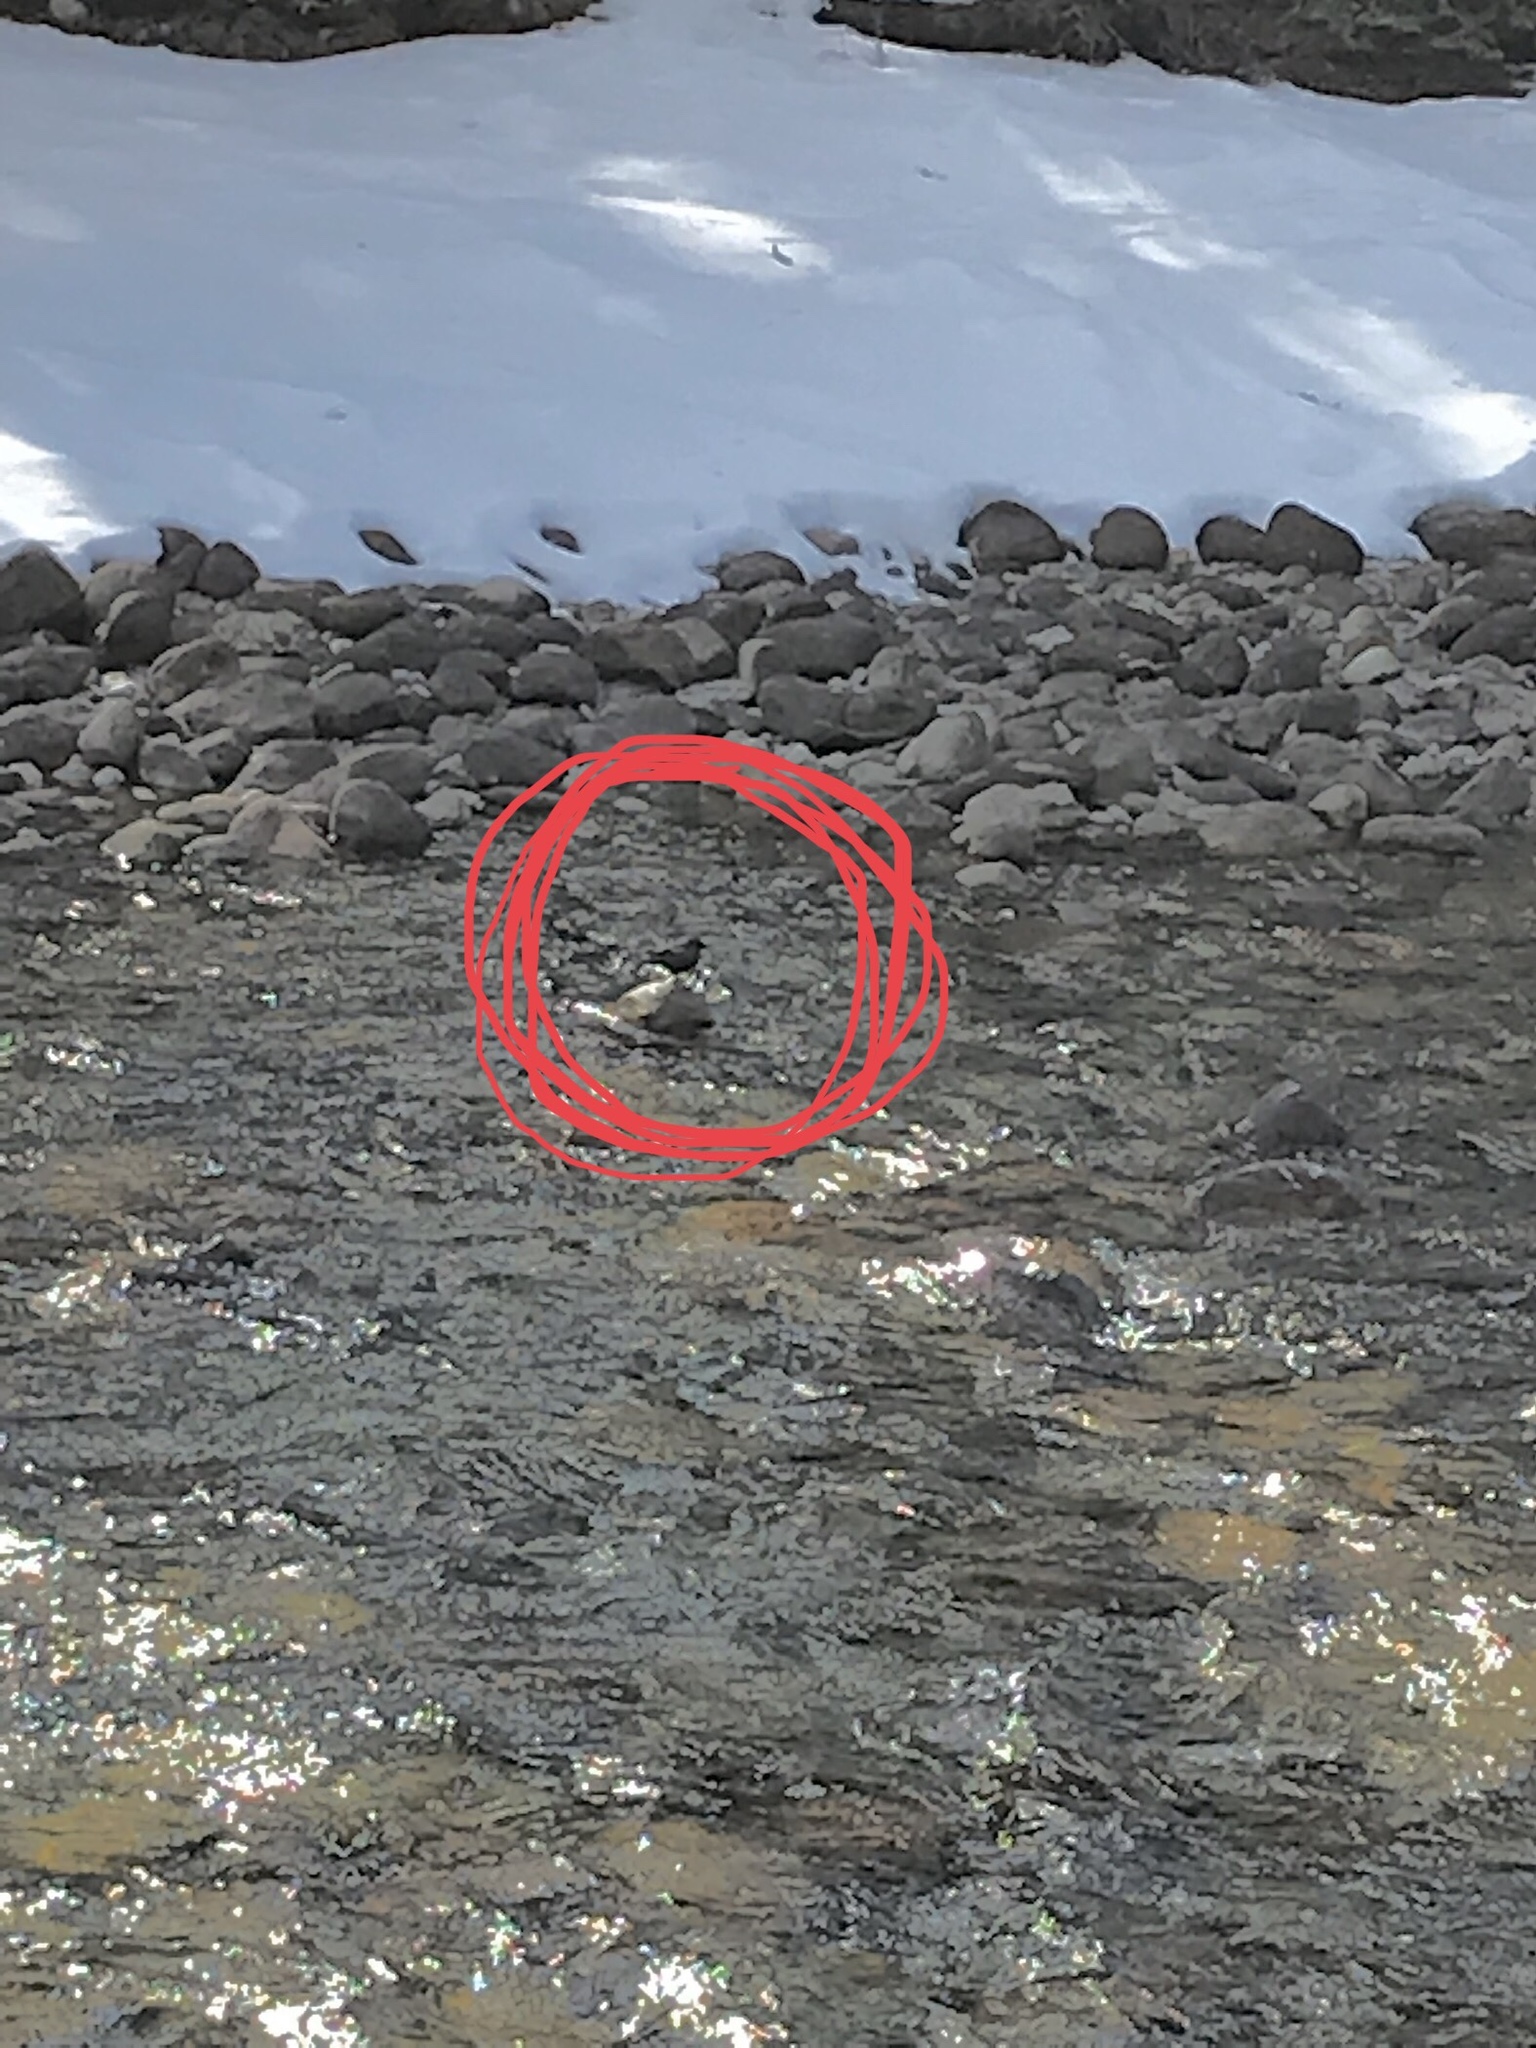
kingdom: Animalia
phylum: Chordata
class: Aves
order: Passeriformes
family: Cinclidae
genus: Cinclus
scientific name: Cinclus mexicanus
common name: American dipper
